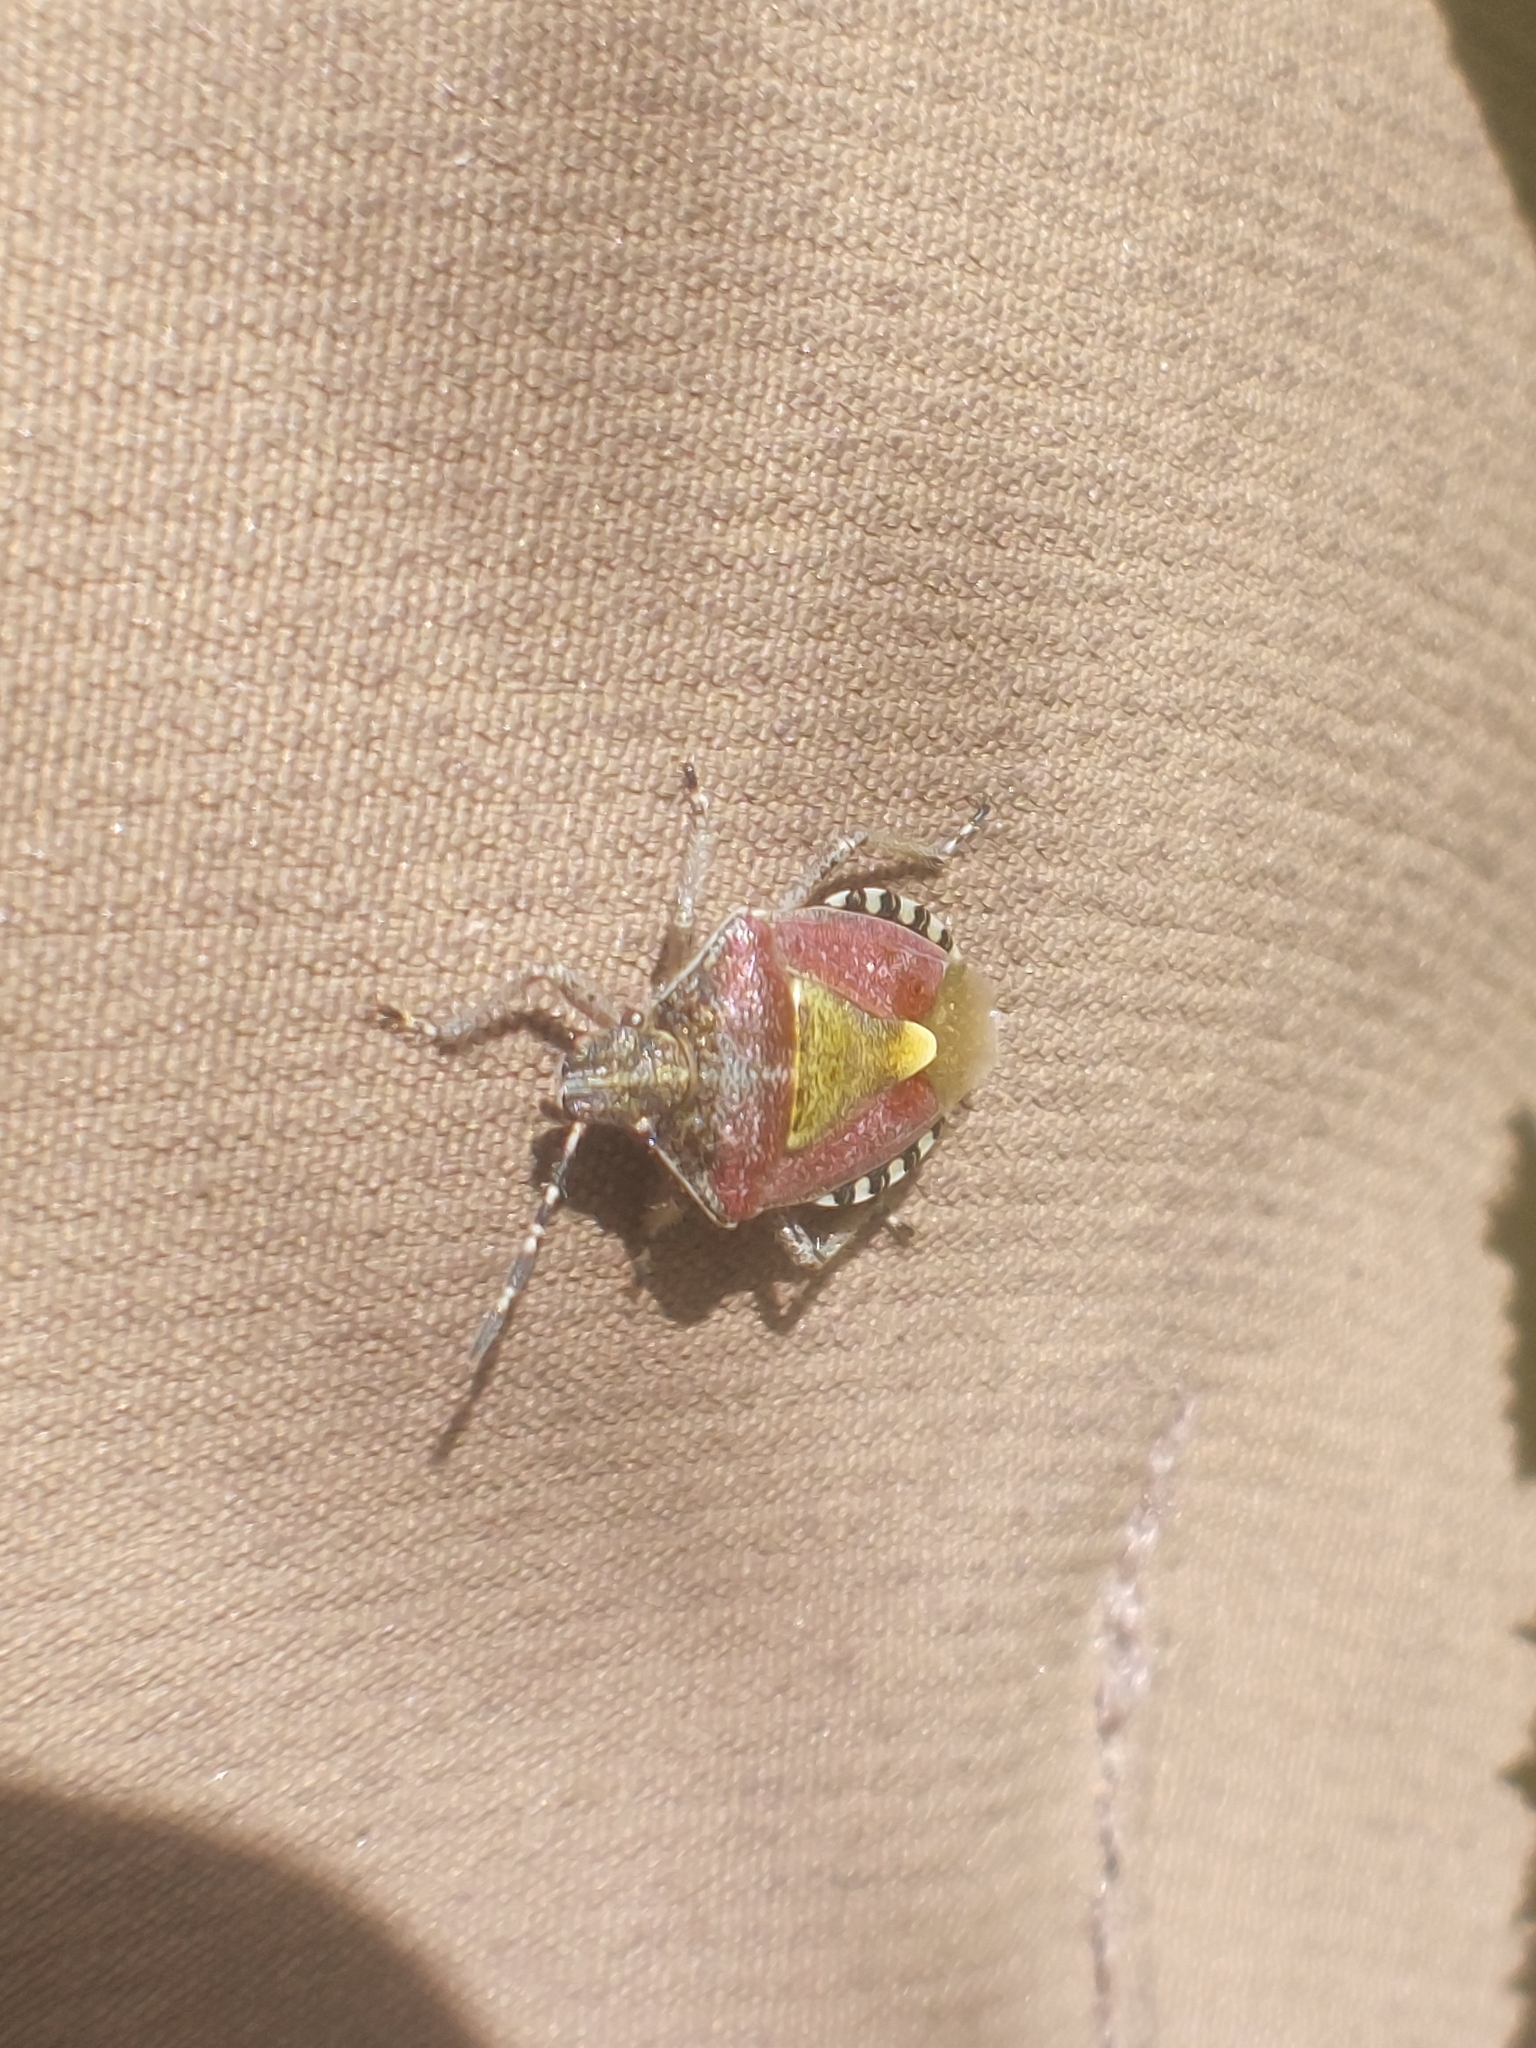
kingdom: Animalia
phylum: Arthropoda
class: Insecta
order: Hemiptera
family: Pentatomidae
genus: Dolycoris
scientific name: Dolycoris baccarum
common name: Sloe bug
